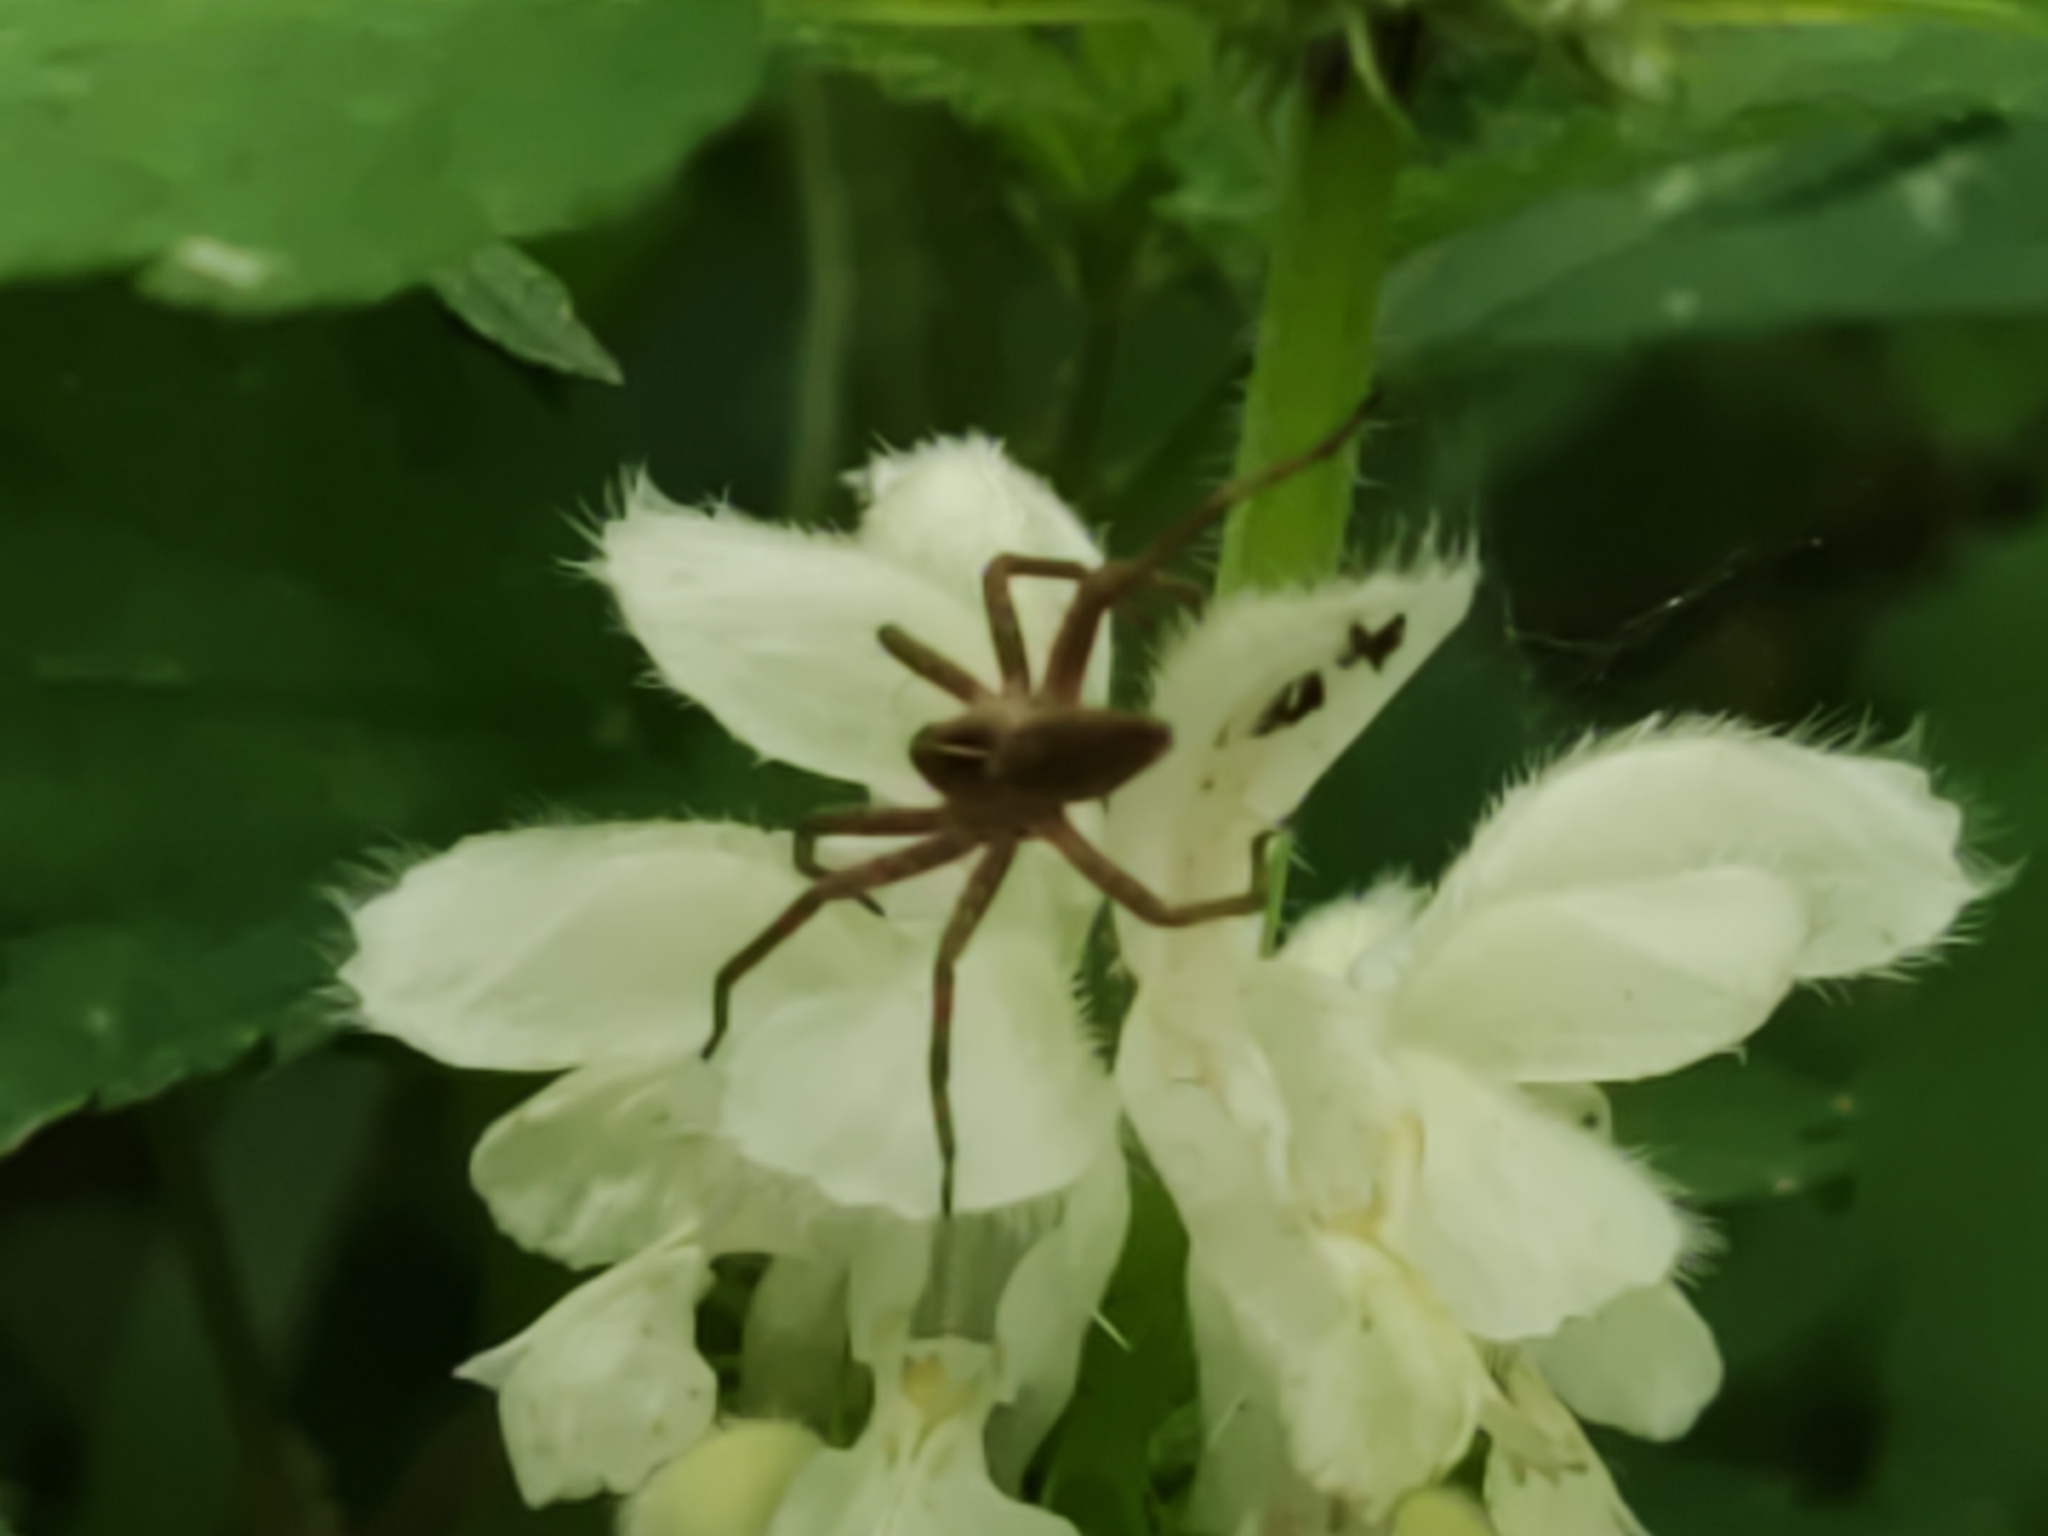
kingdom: Animalia
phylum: Arthropoda
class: Arachnida
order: Araneae
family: Pisauridae
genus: Pisaura
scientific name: Pisaura mirabilis
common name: Tent spider
